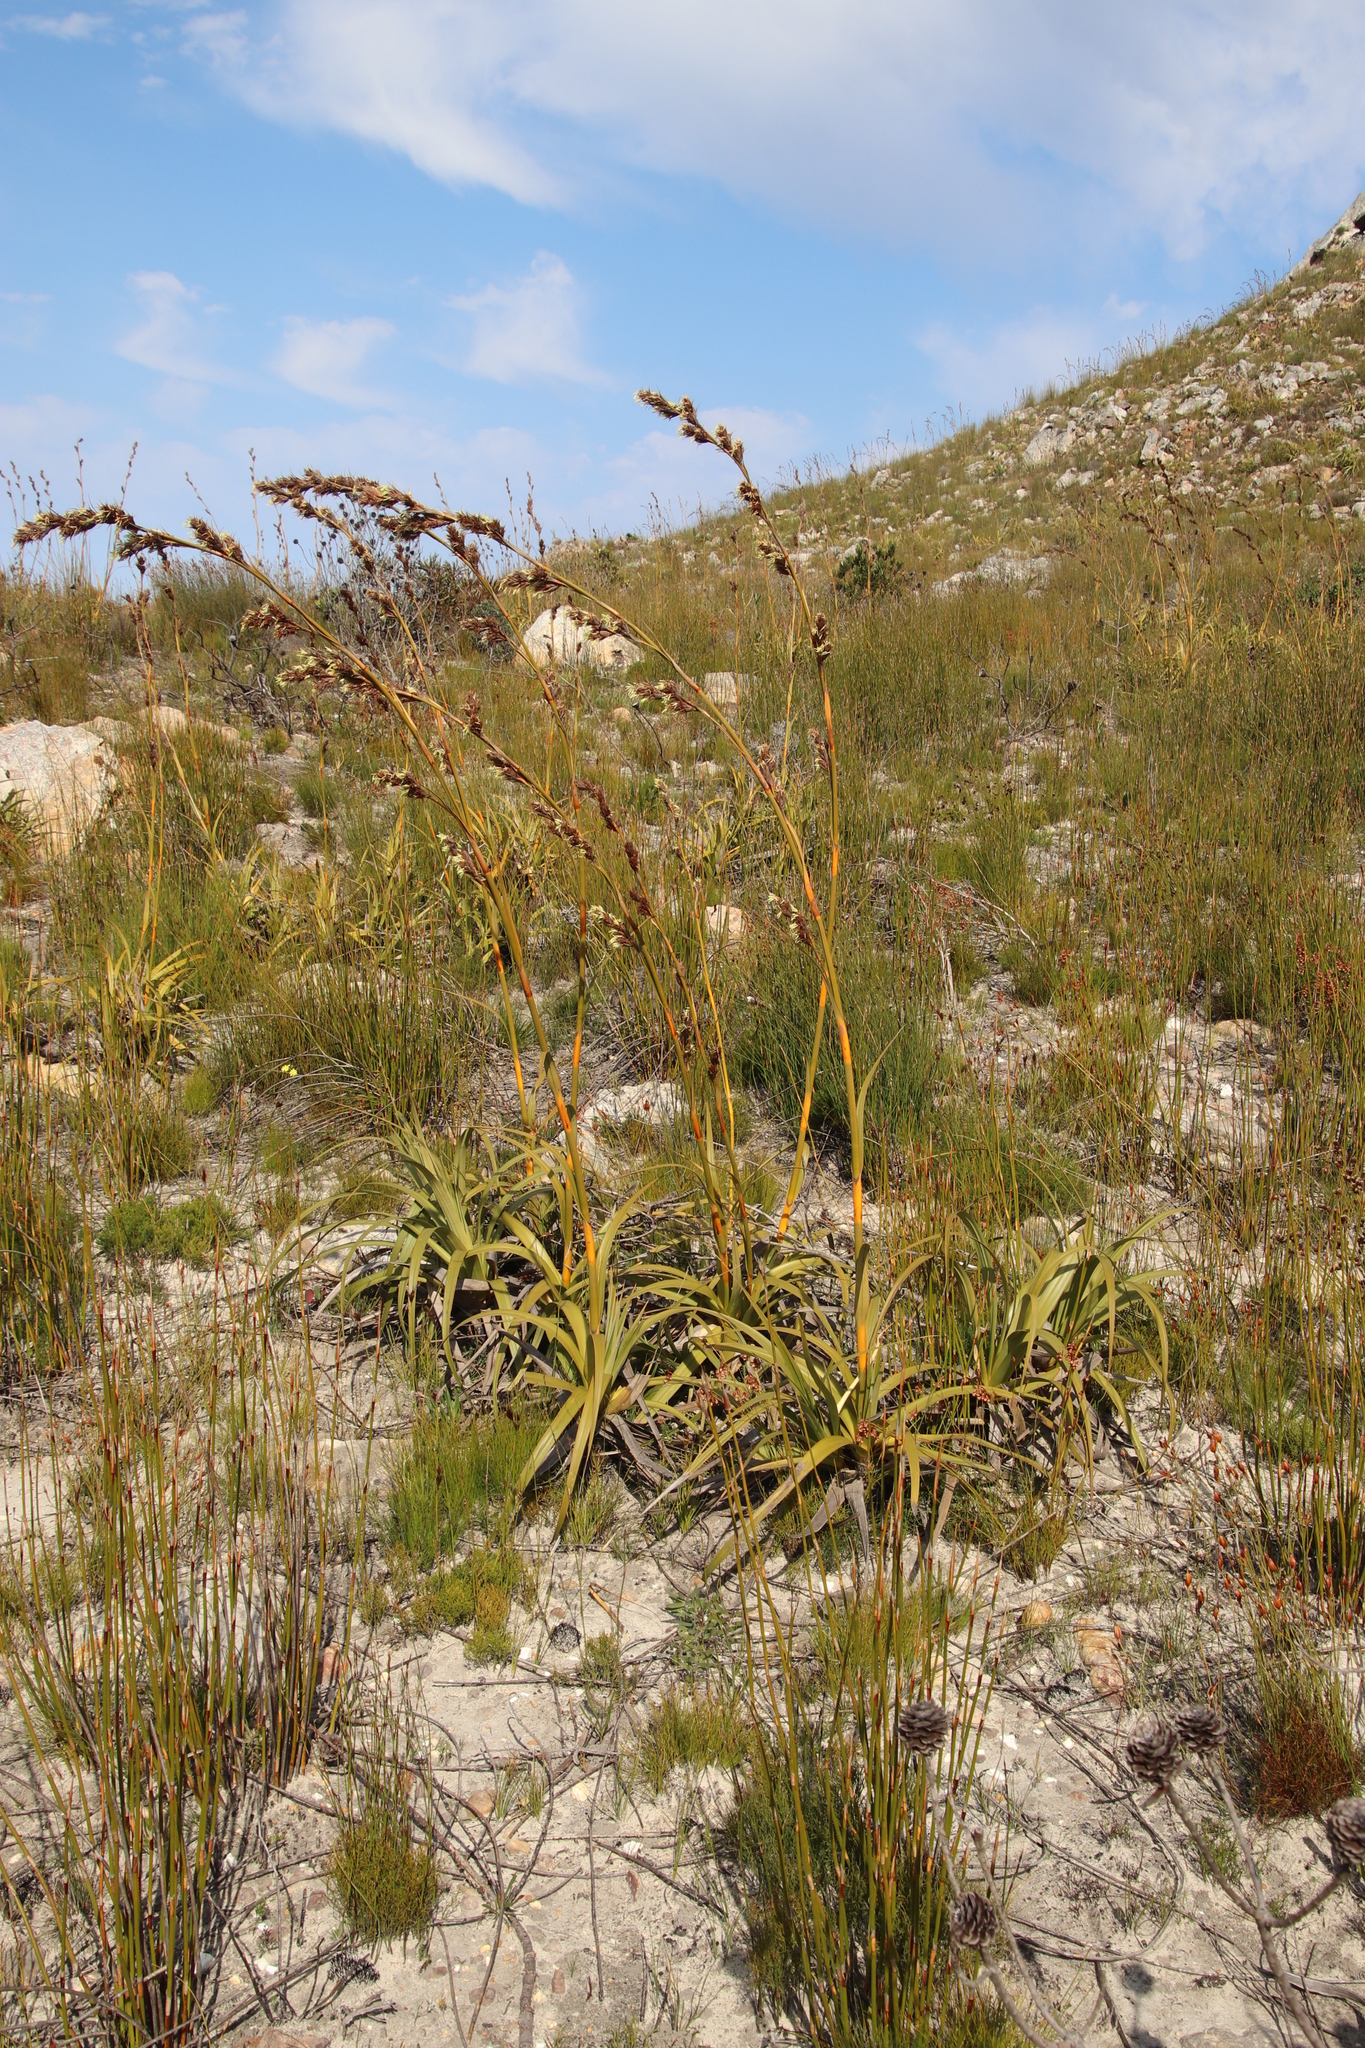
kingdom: Plantae
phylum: Tracheophyta
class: Liliopsida
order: Poales
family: Cyperaceae
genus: Tetraria
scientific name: Tetraria thermalis
